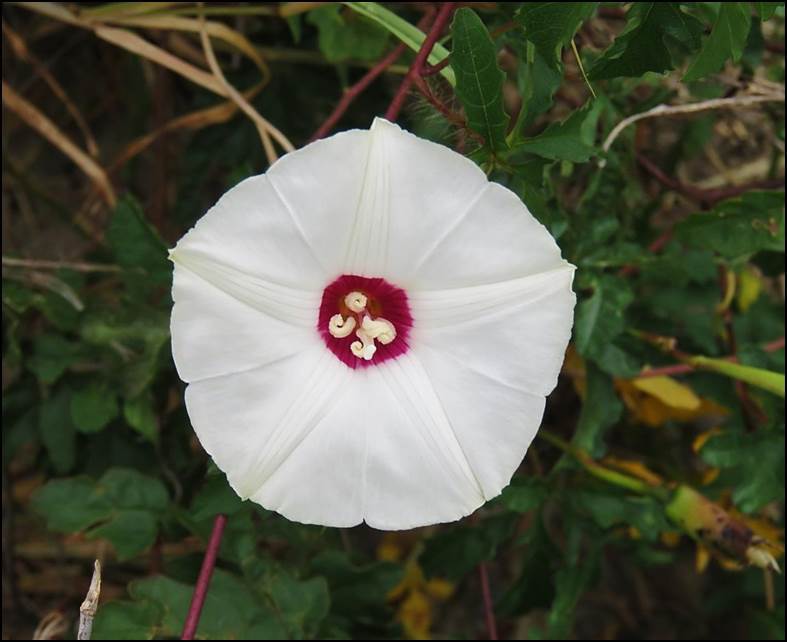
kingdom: Plantae
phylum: Tracheophyta
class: Magnoliopsida
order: Solanales
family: Convolvulaceae
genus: Distimake
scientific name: Distimake dissectus
